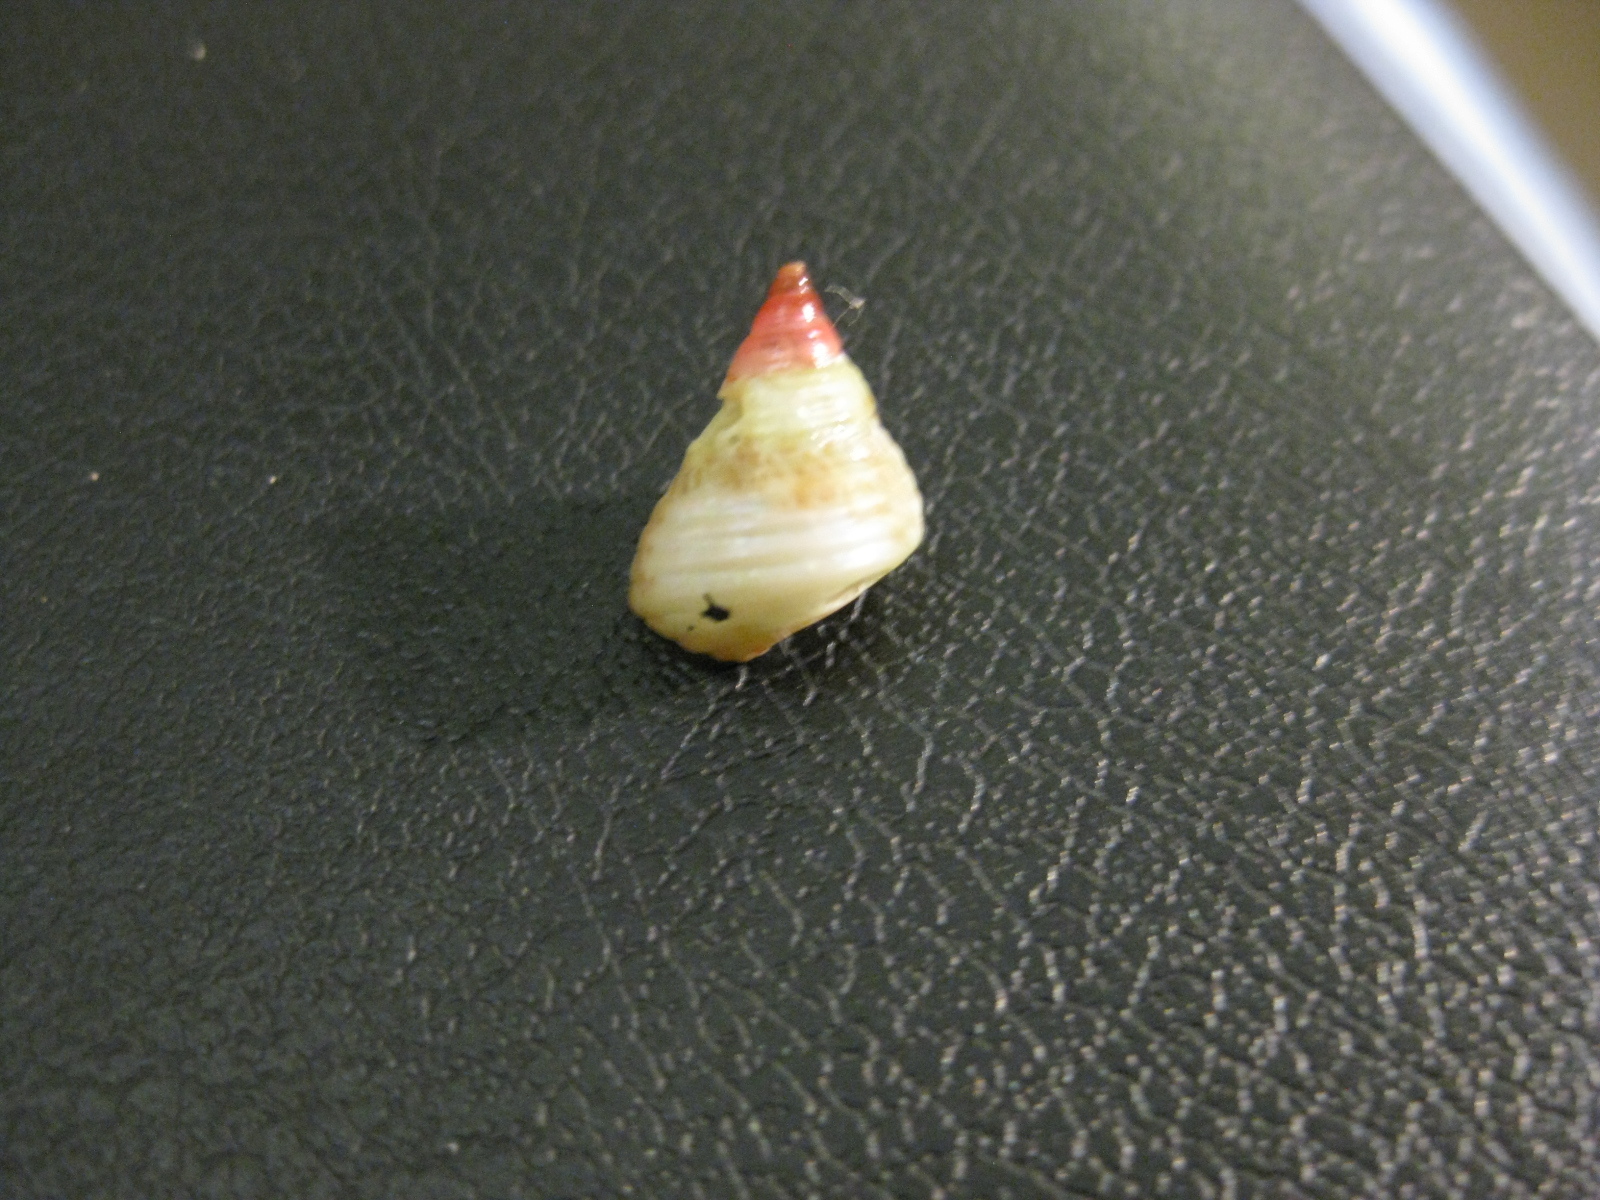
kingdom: Animalia
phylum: Mollusca
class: Gastropoda
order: Trochida
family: Trochidae
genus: Micrelenchus
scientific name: Micrelenchus purpureus
